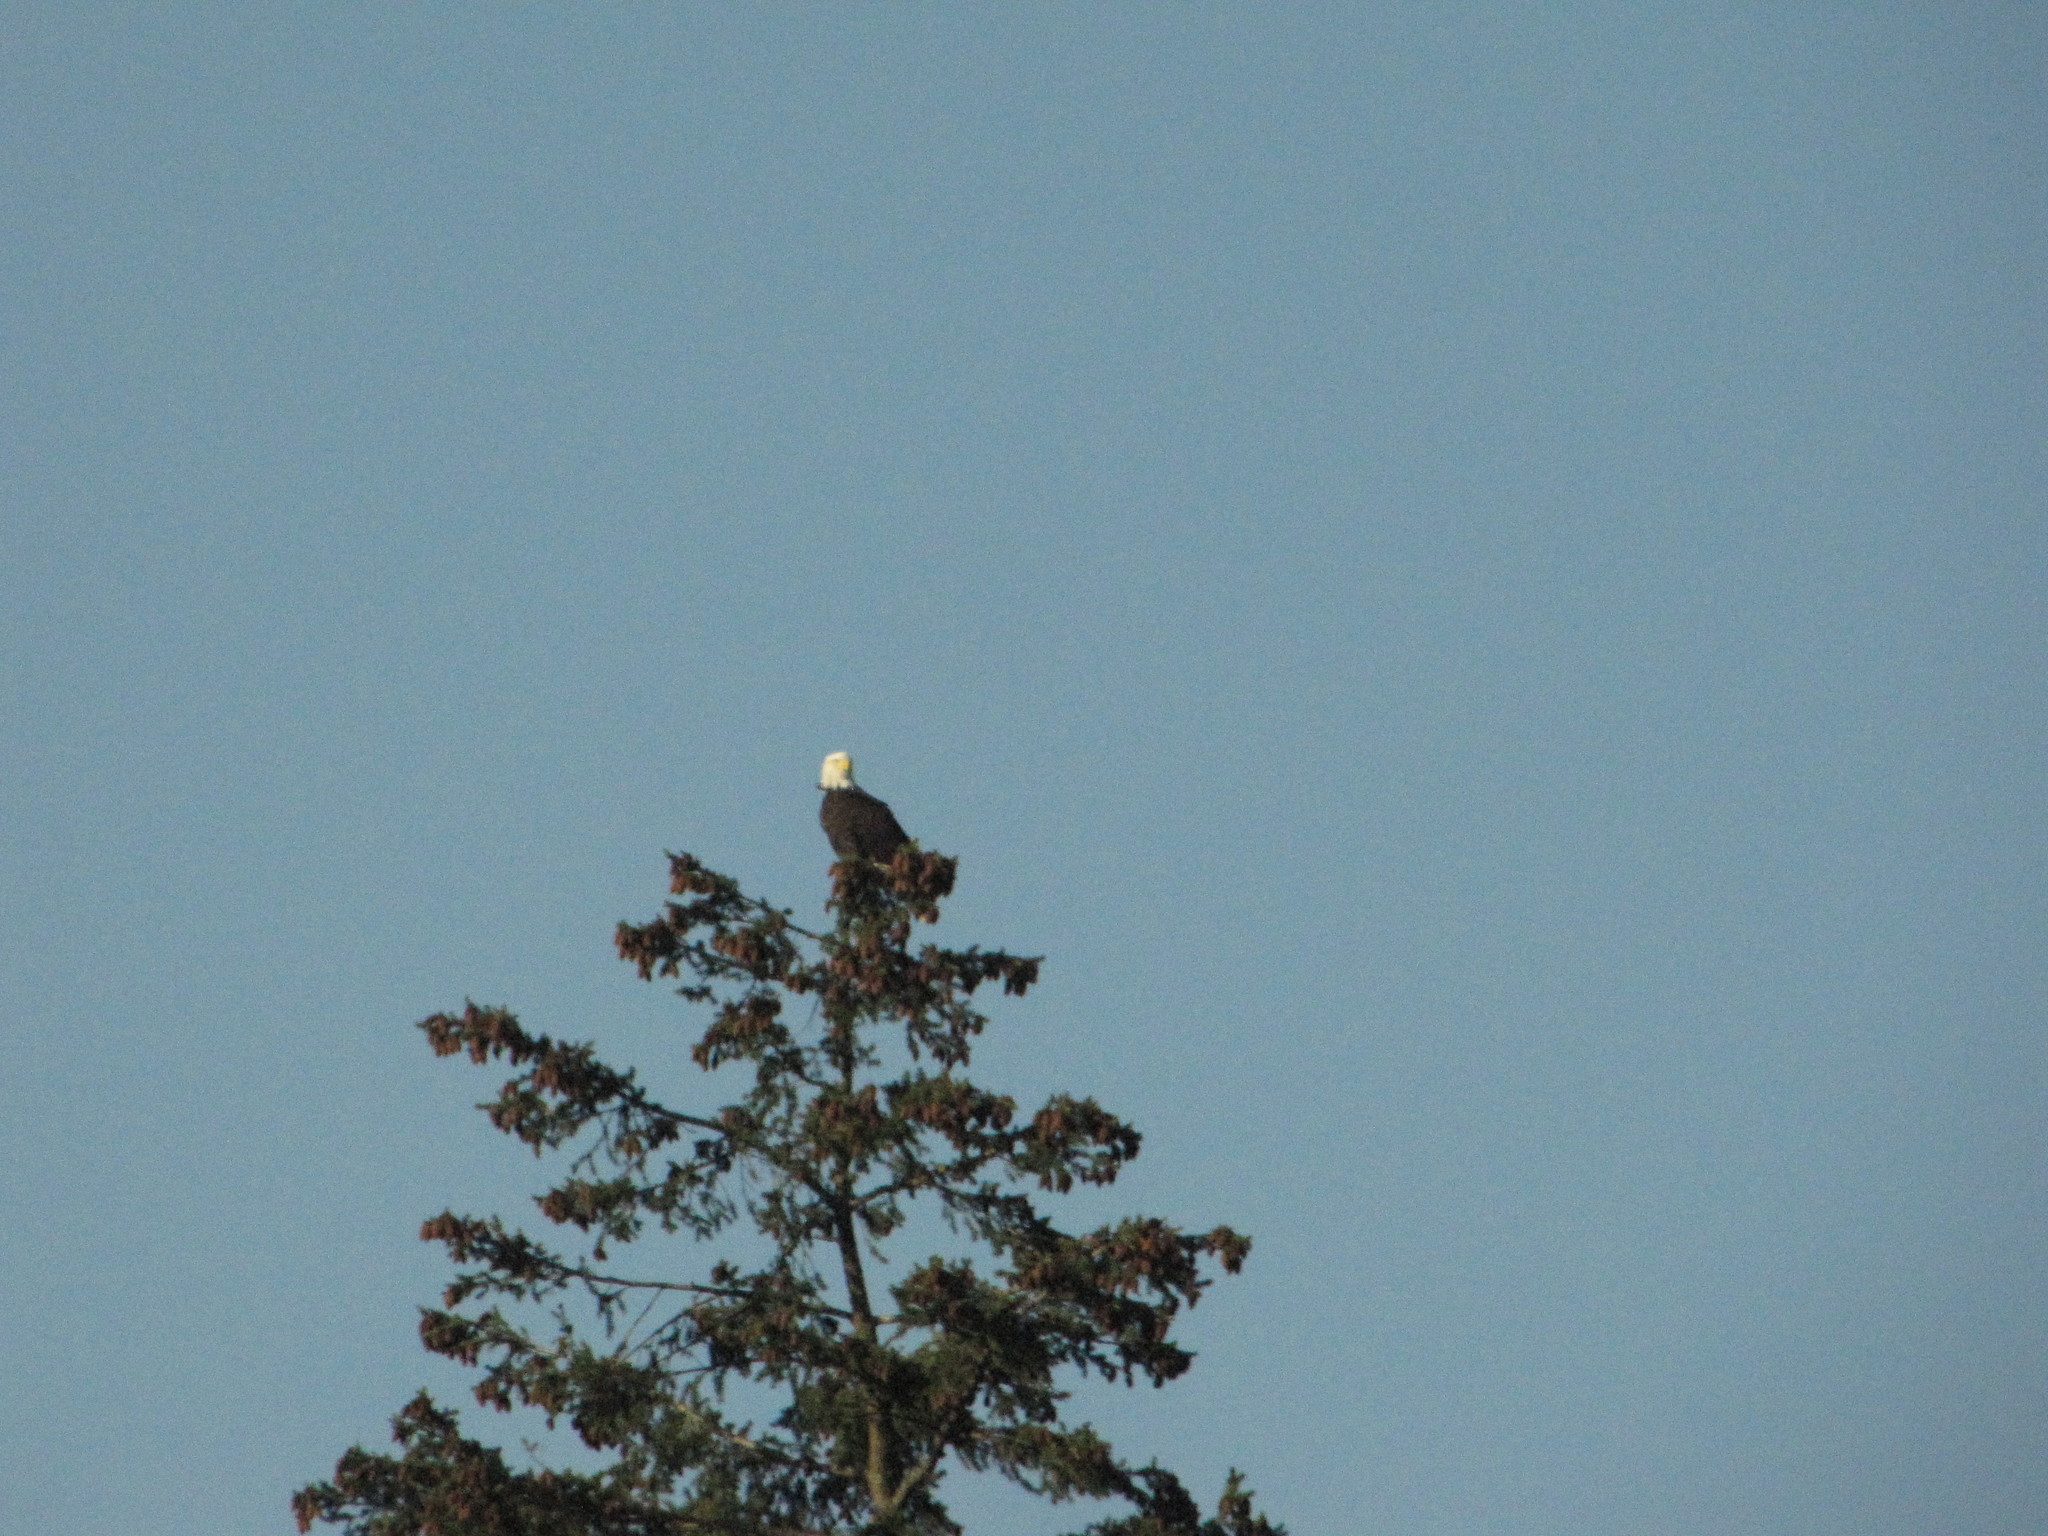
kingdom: Animalia
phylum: Chordata
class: Aves
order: Accipitriformes
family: Accipitridae
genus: Haliaeetus
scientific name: Haliaeetus leucocephalus
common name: Bald eagle
